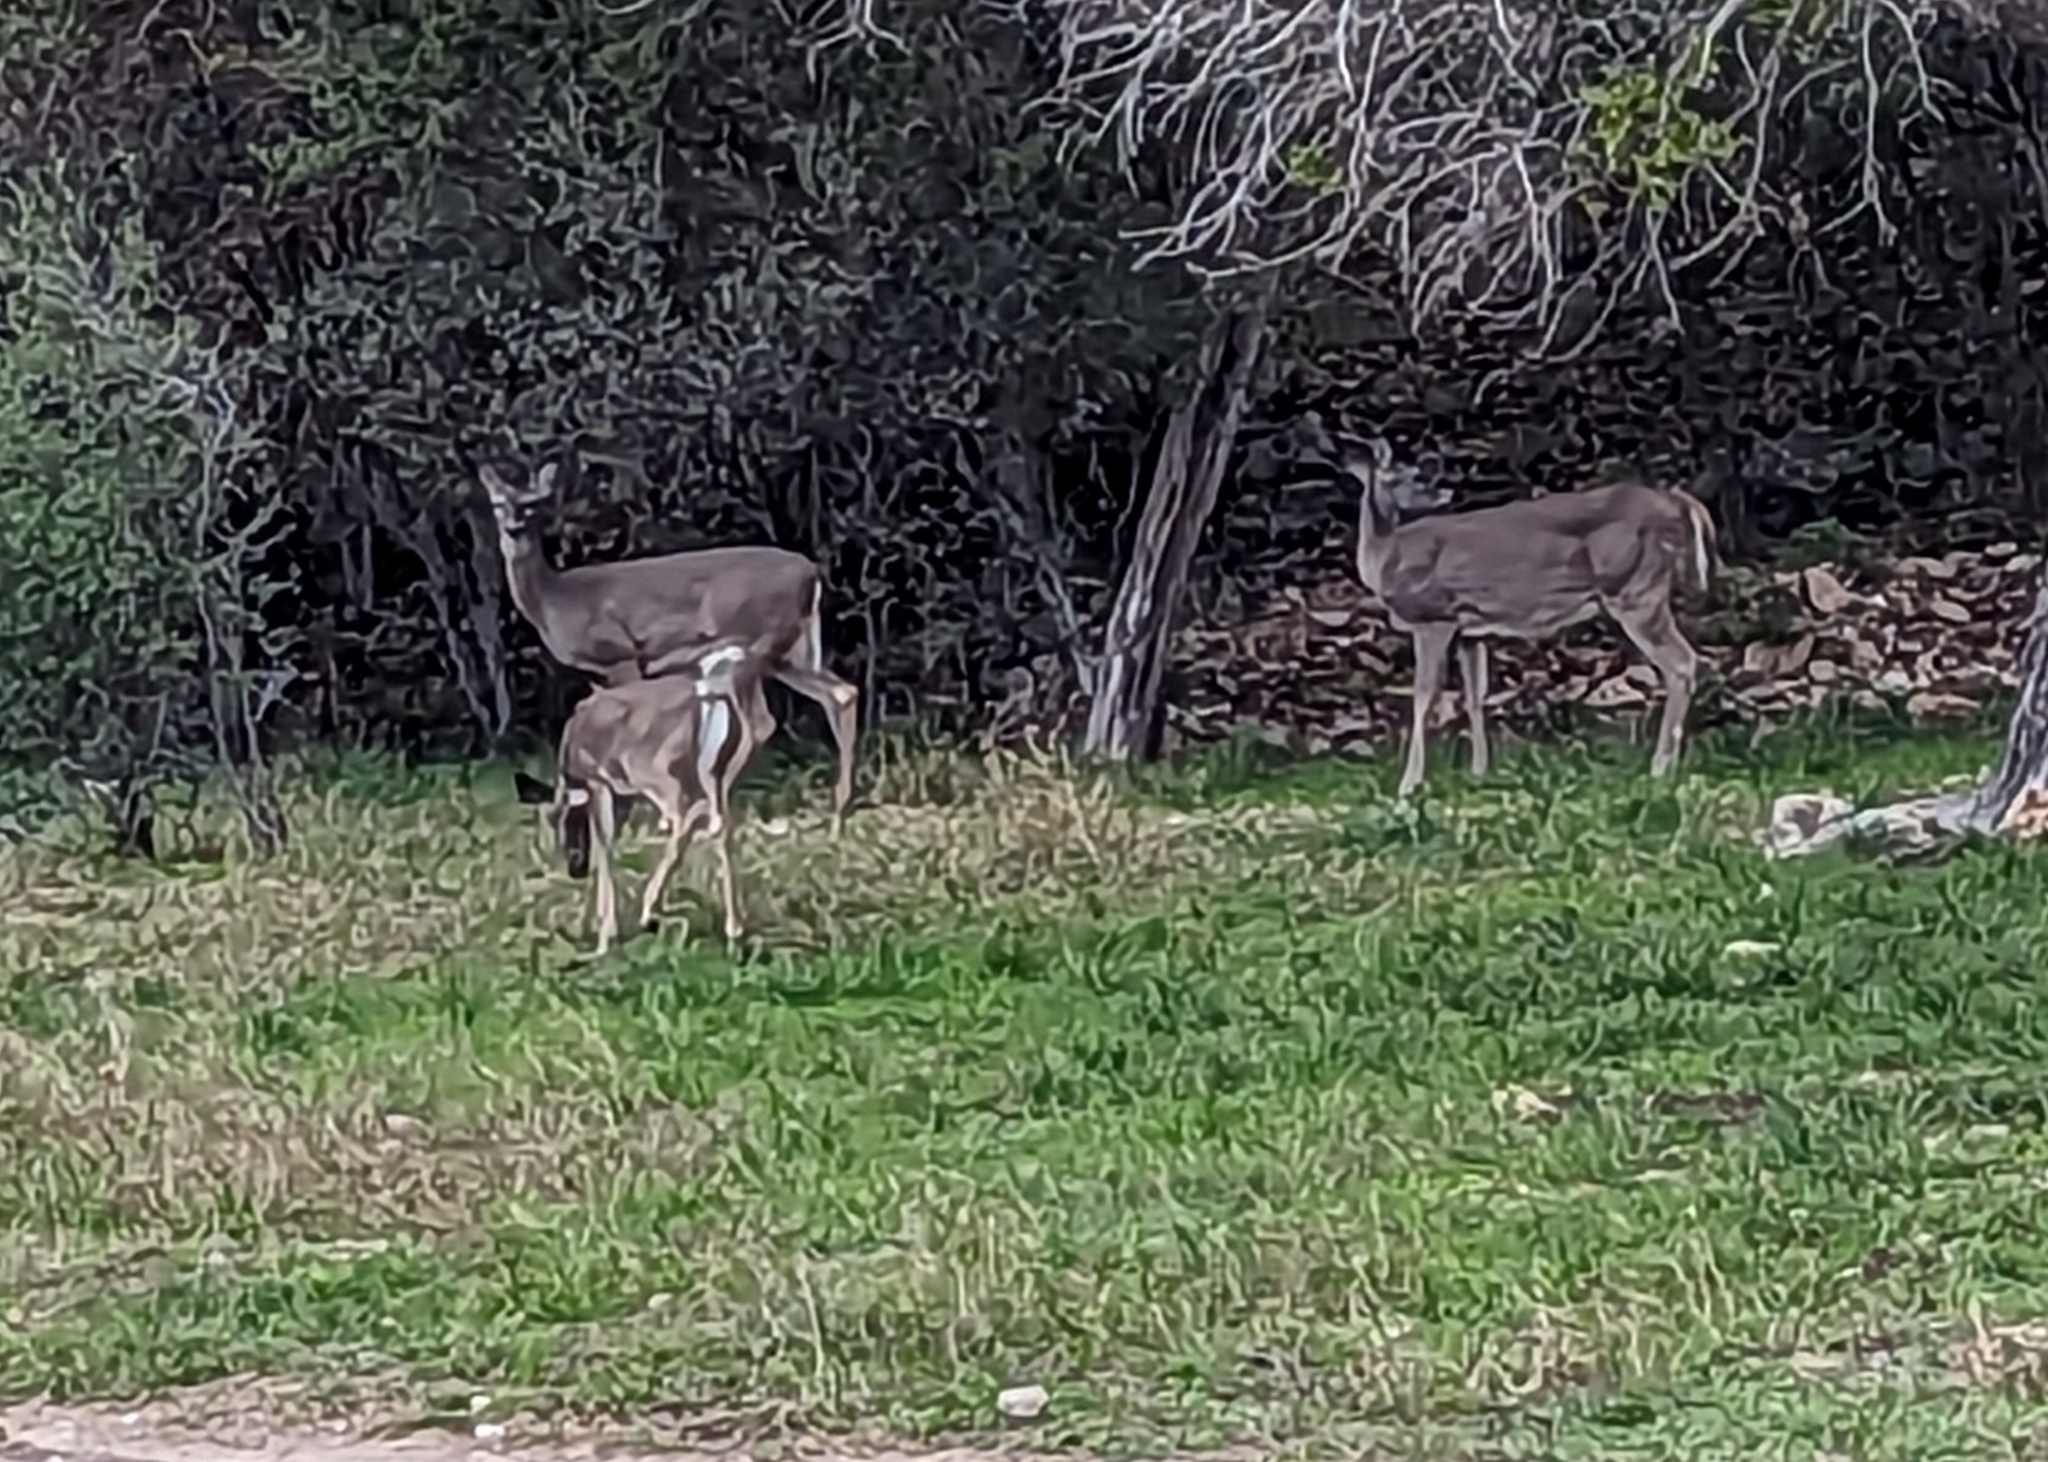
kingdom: Animalia
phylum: Chordata
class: Mammalia
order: Artiodactyla
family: Cervidae
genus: Odocoileus
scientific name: Odocoileus virginianus
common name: White-tailed deer
